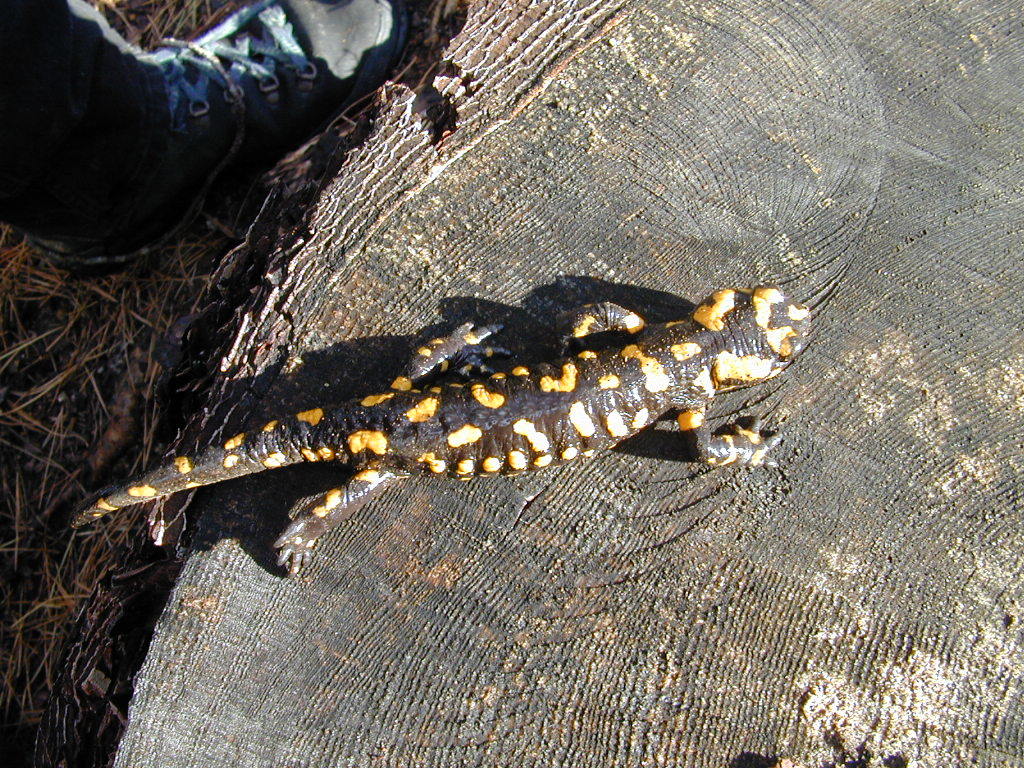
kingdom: Animalia
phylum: Chordata
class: Amphibia
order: Caudata
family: Salamandridae
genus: Salamandra
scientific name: Salamandra corsica
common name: Corsican fire salamander
